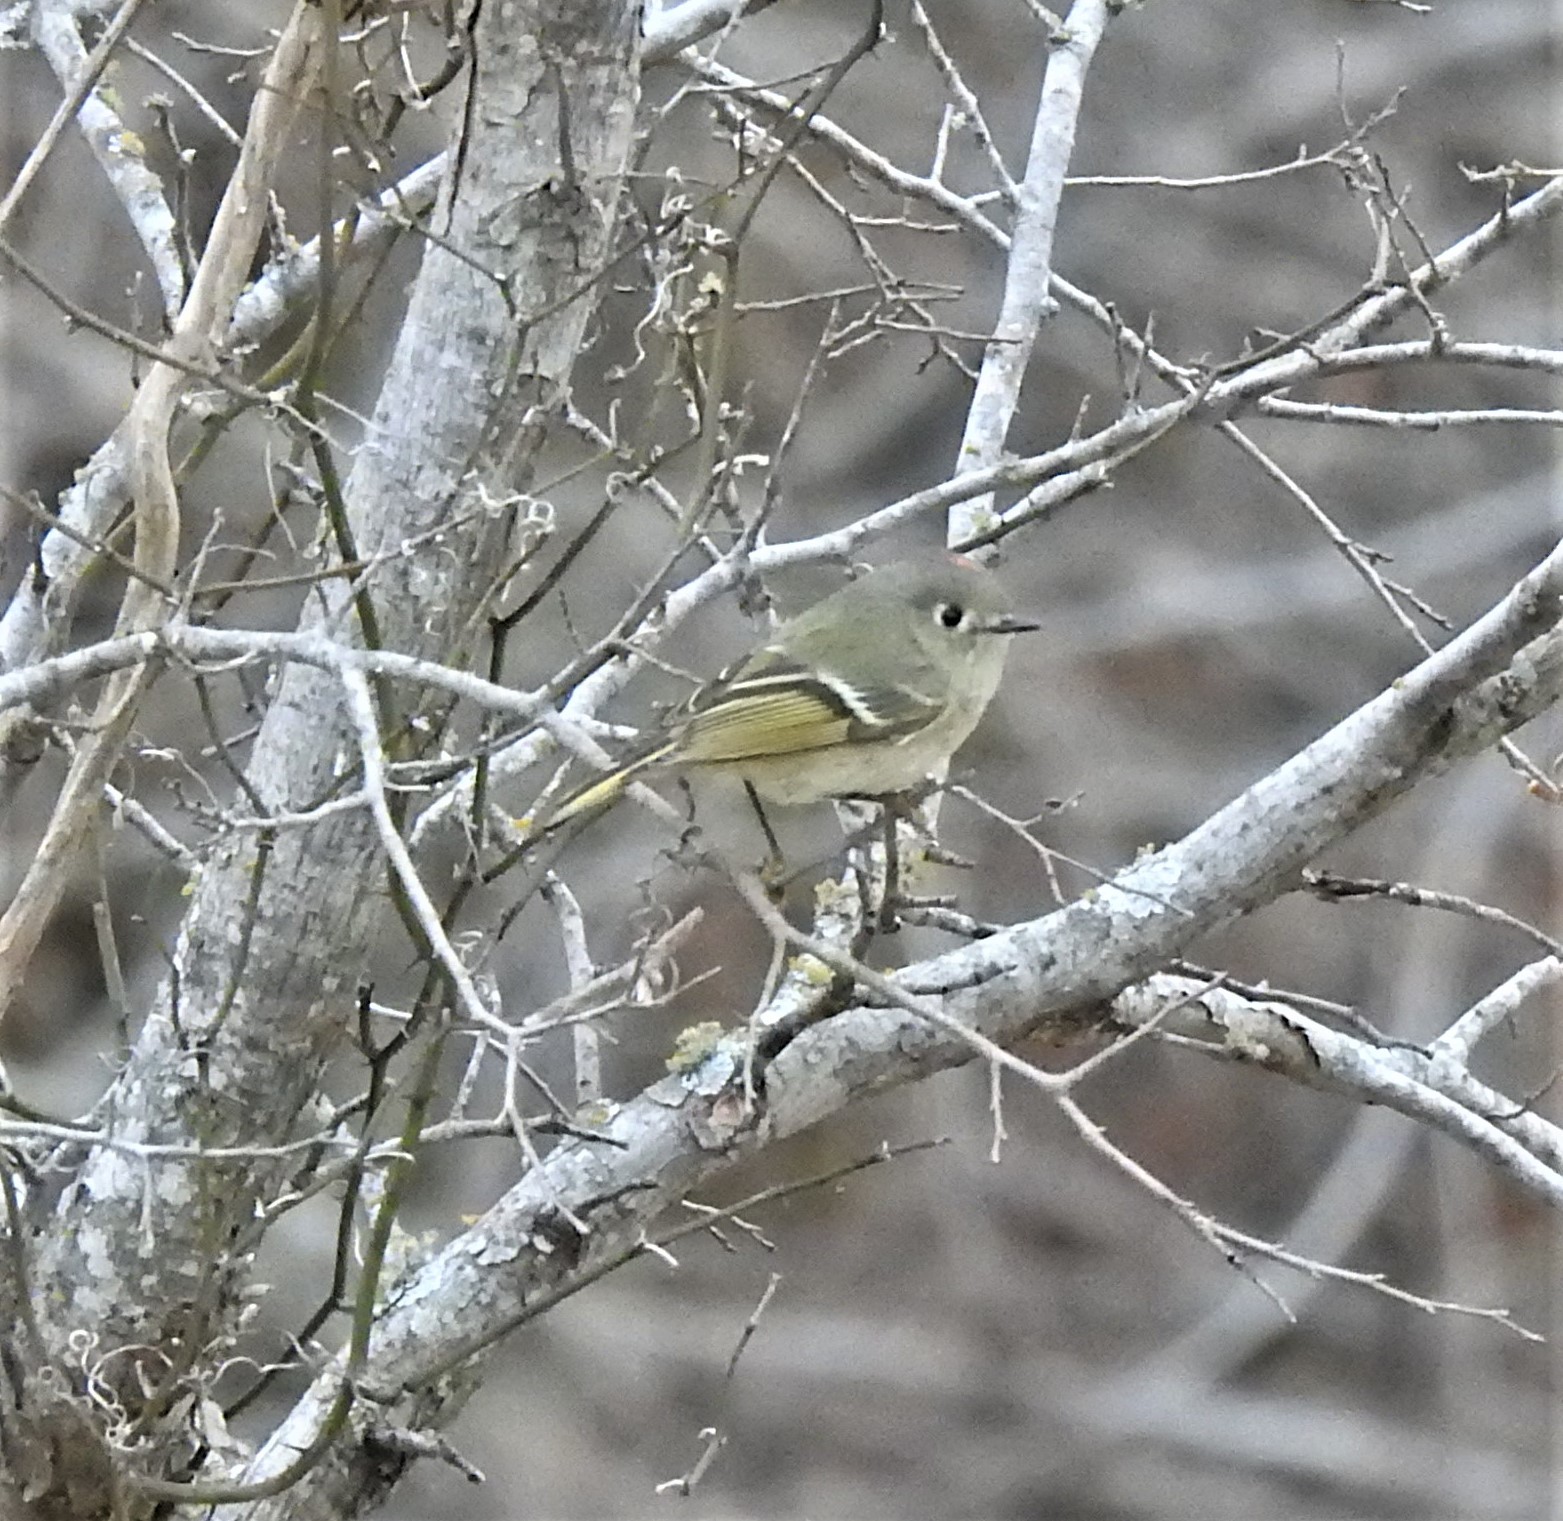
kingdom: Animalia
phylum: Chordata
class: Aves
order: Passeriformes
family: Regulidae
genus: Regulus
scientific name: Regulus calendula
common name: Ruby-crowned kinglet
